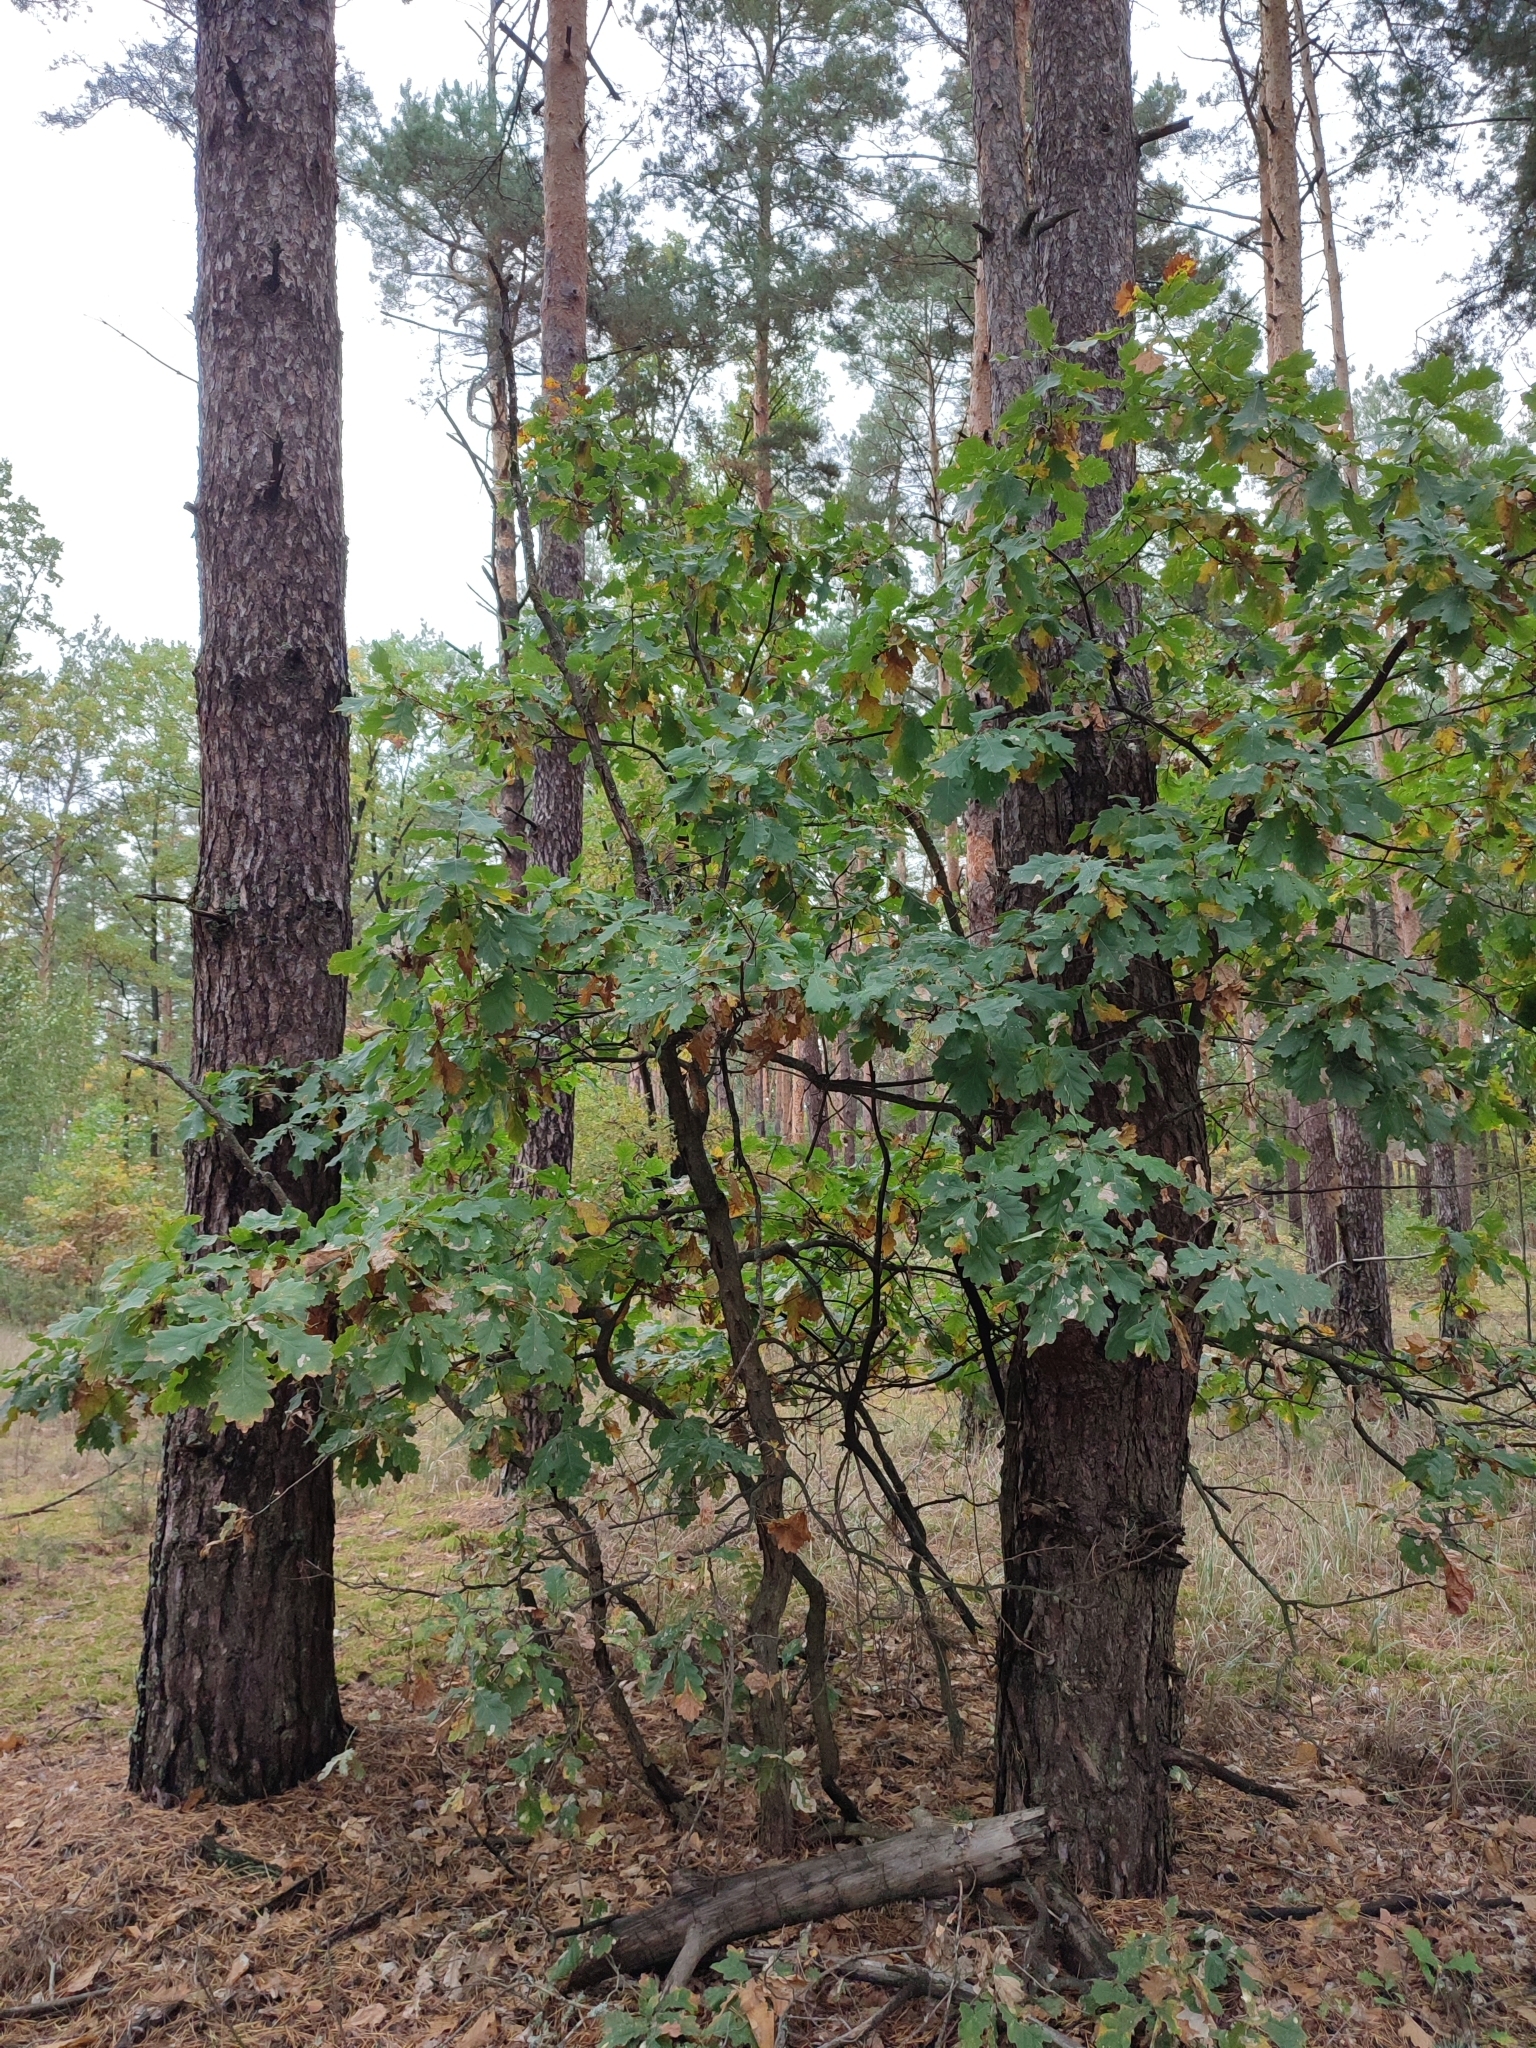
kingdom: Plantae
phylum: Tracheophyta
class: Magnoliopsida
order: Fagales
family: Fagaceae
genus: Quercus
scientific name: Quercus robur
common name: Pedunculate oak
